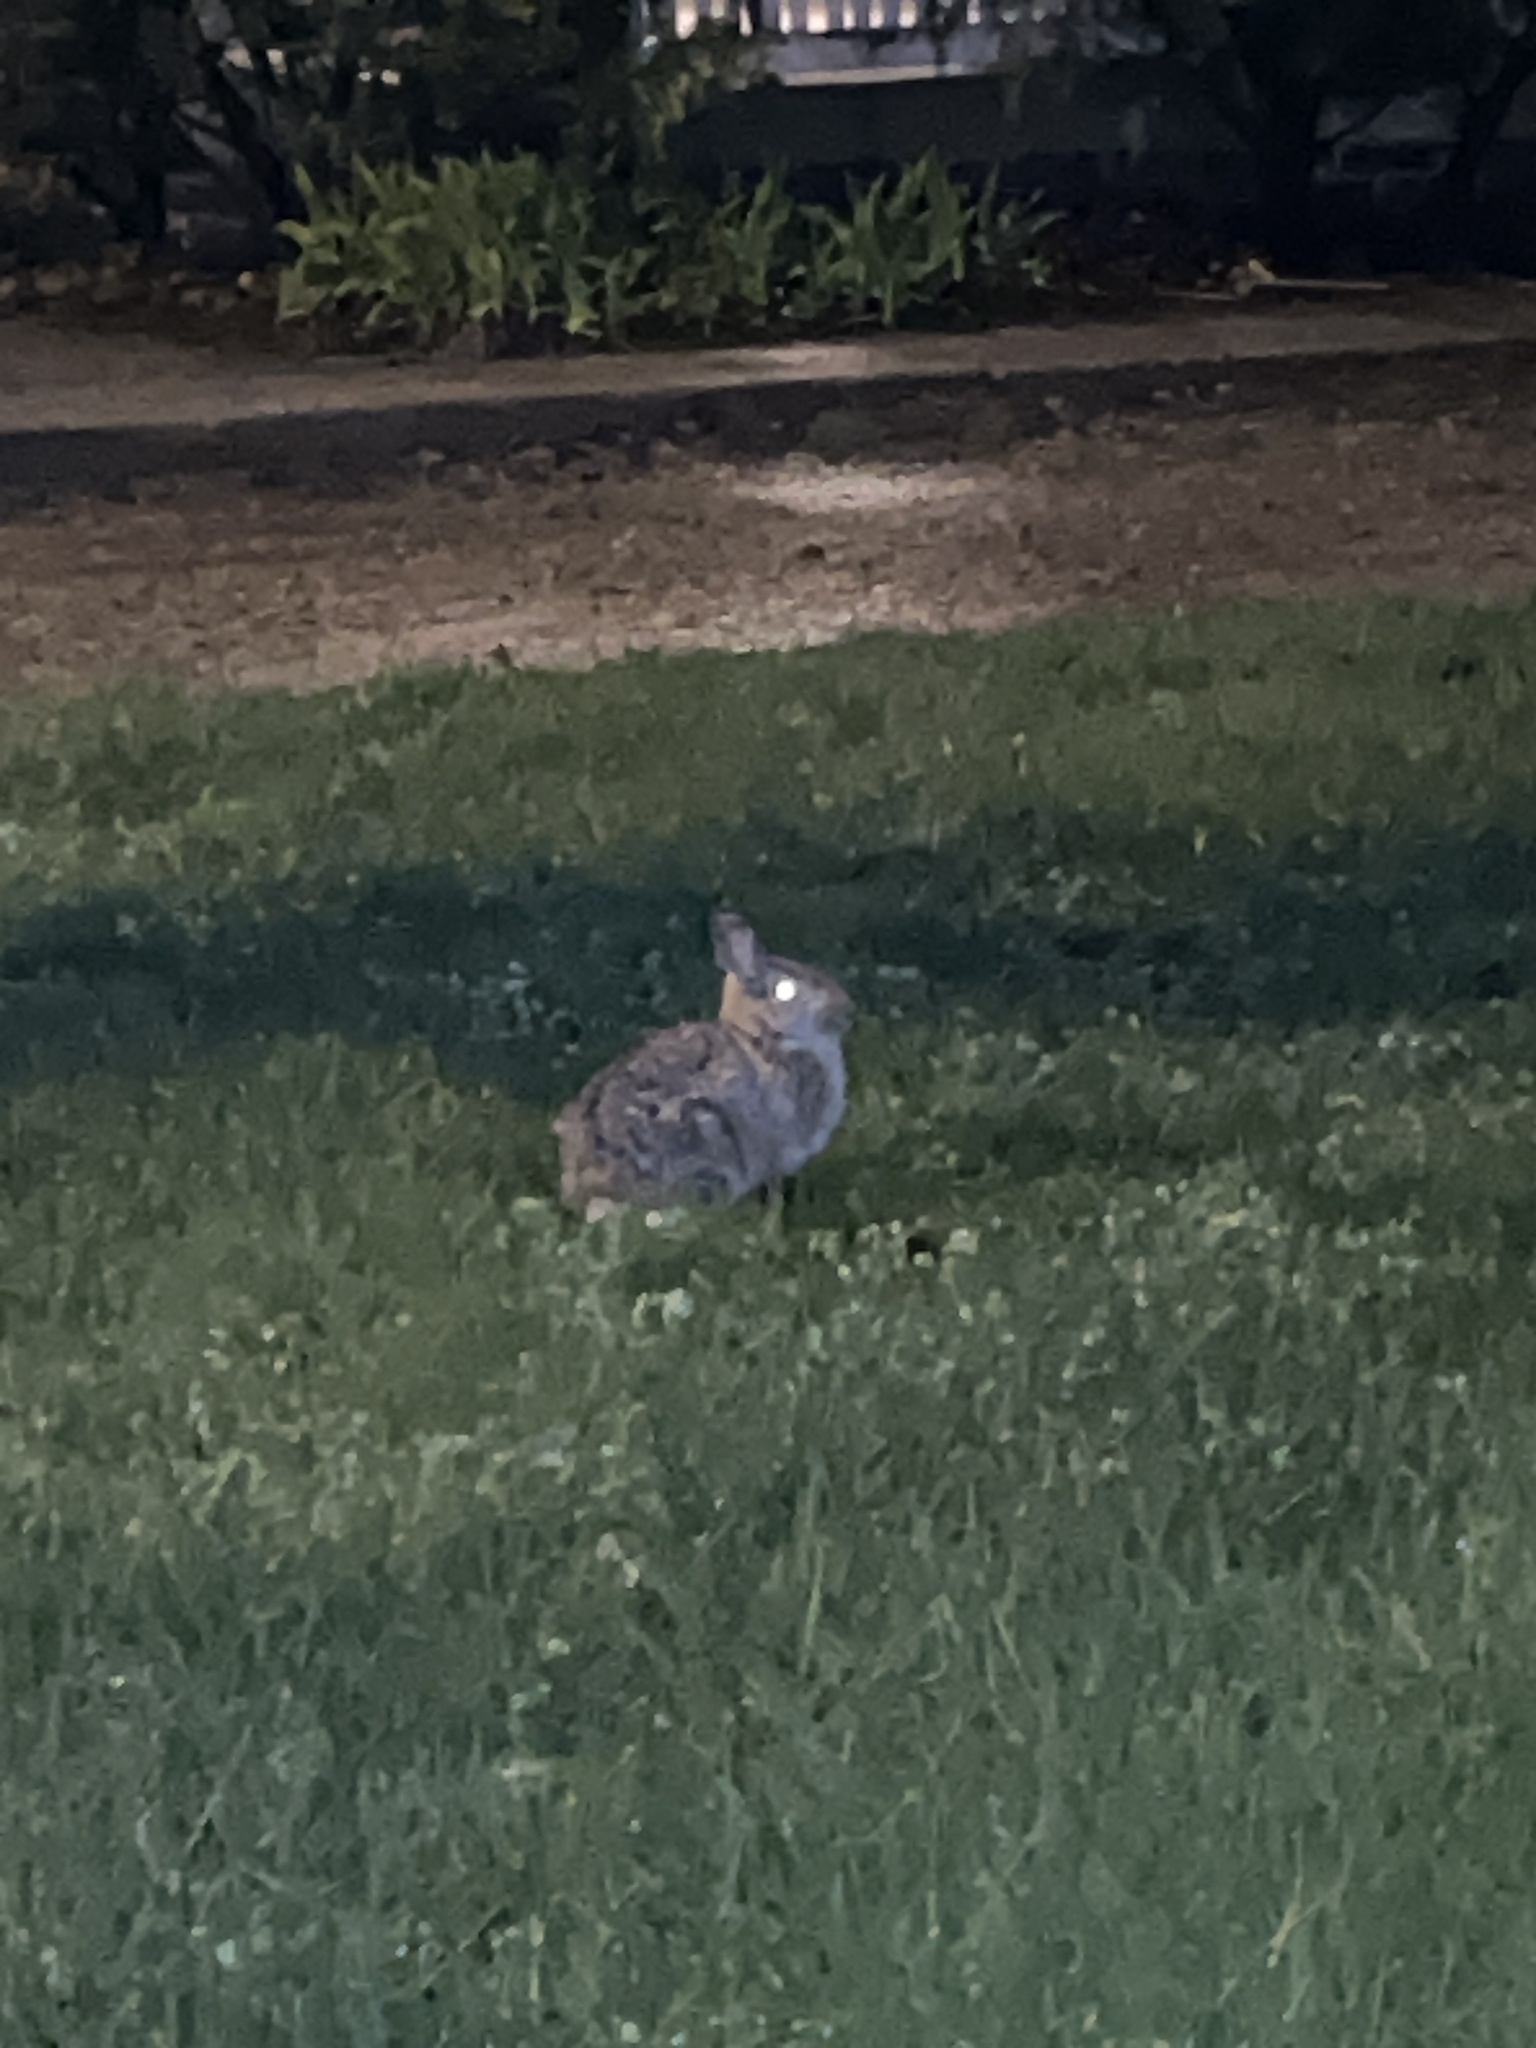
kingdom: Animalia
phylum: Chordata
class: Mammalia
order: Lagomorpha
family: Leporidae
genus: Sylvilagus
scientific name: Sylvilagus floridanus
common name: Eastern cottontail
